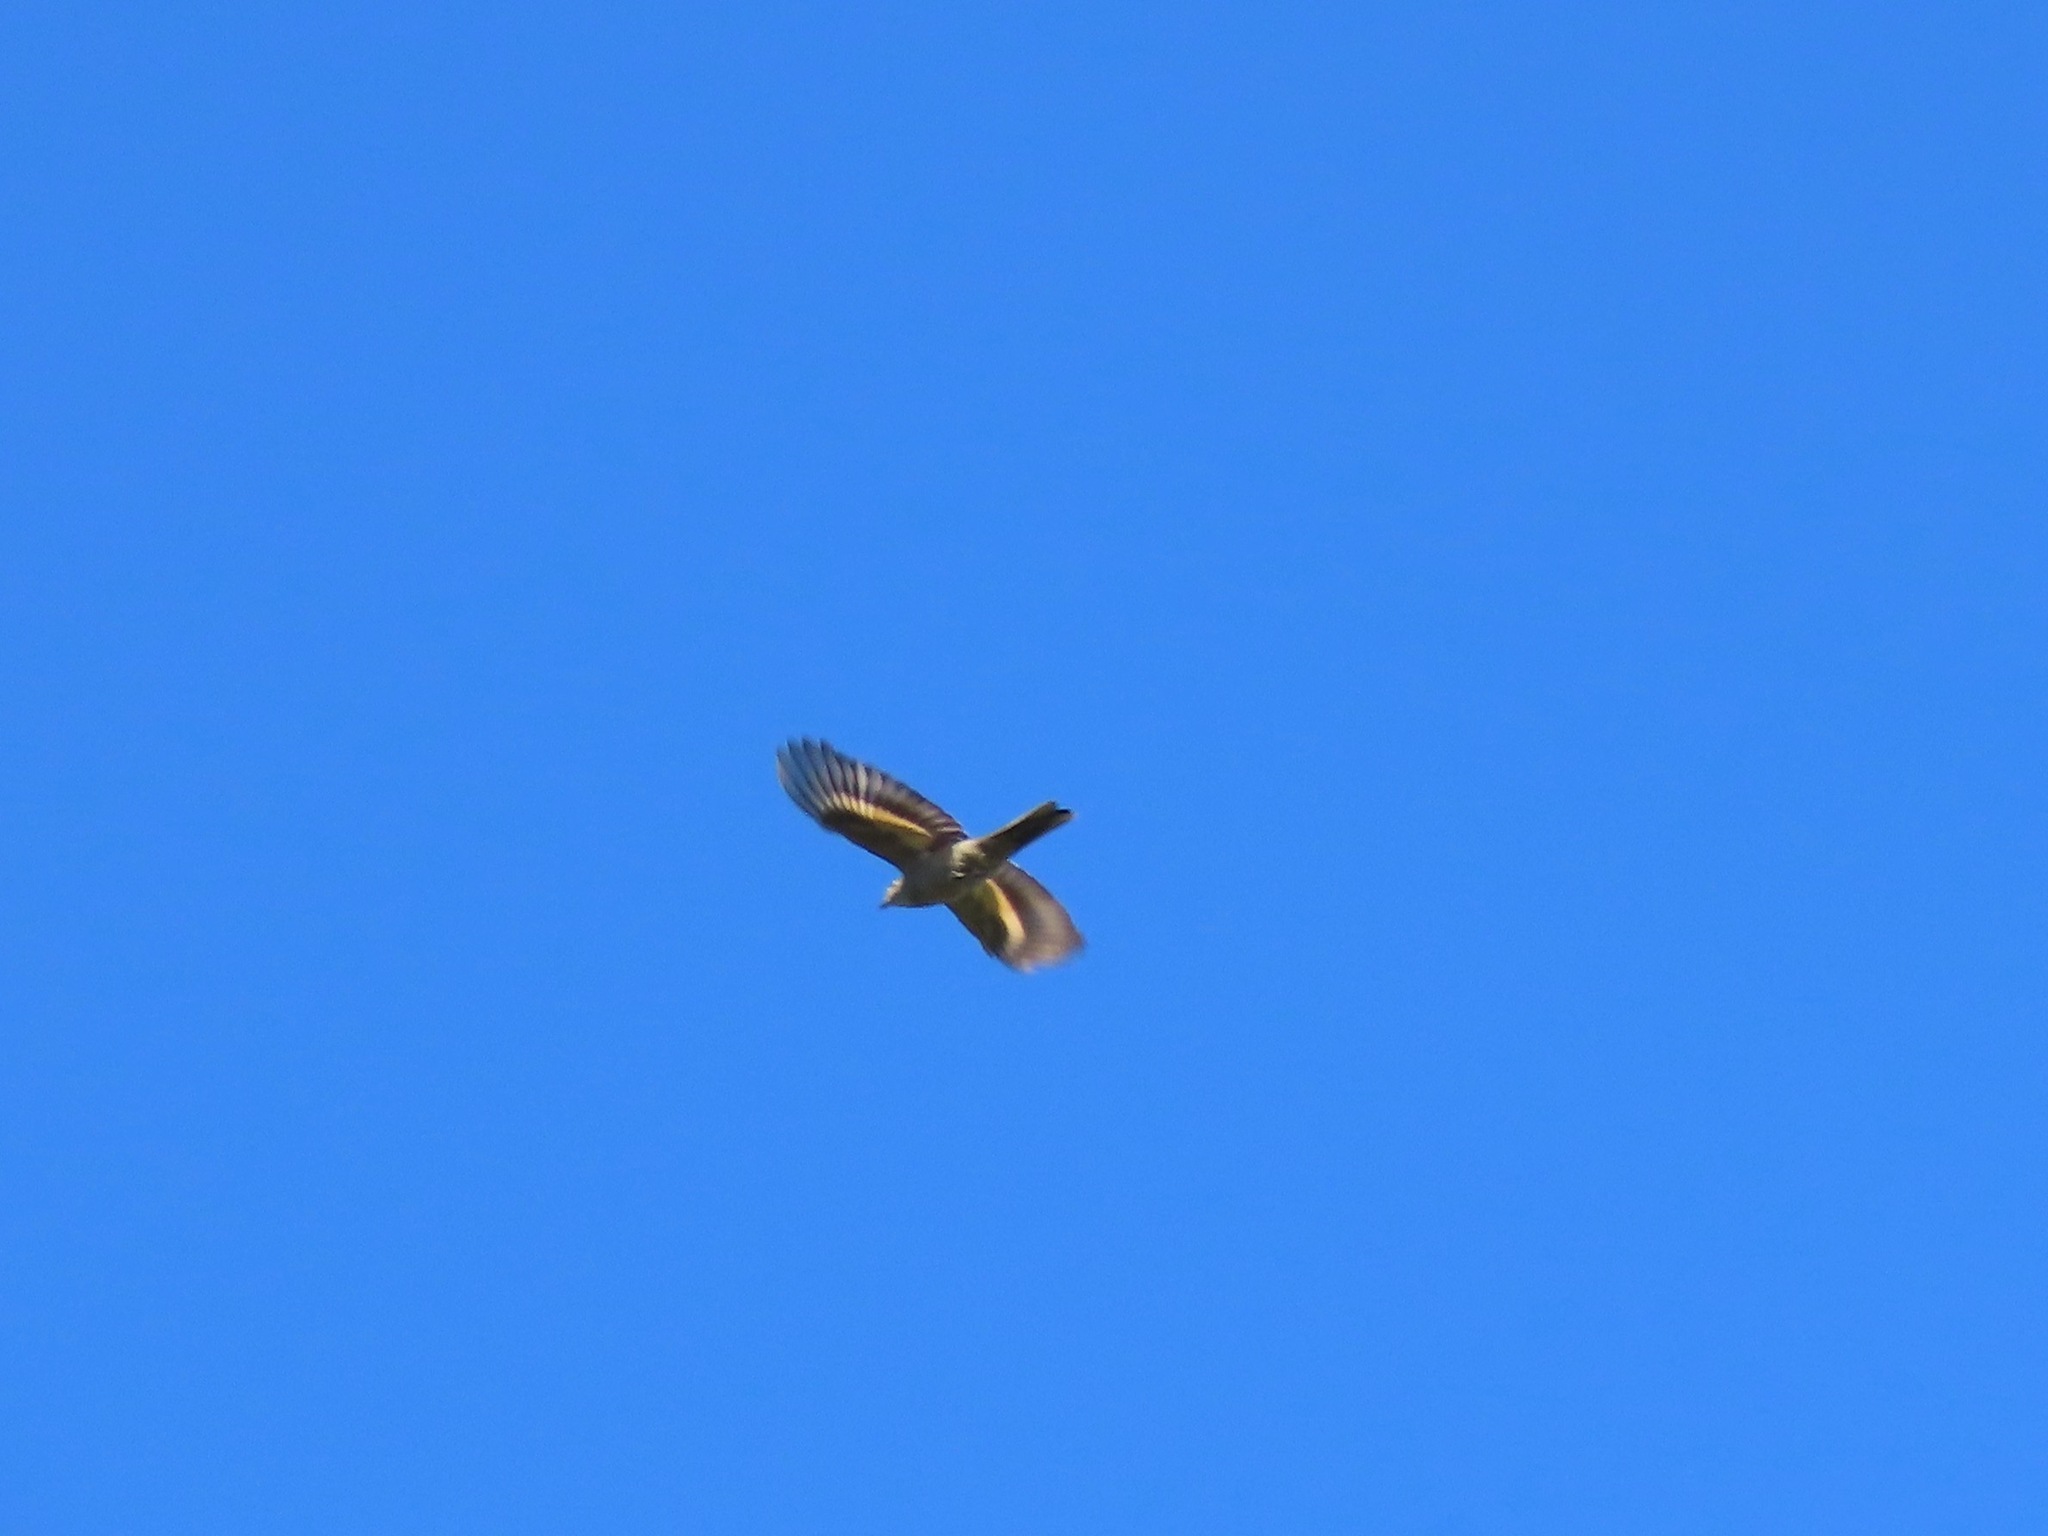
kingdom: Animalia
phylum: Chordata
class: Aves
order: Passeriformes
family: Turdidae
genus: Myadestes
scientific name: Myadestes townsendi
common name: Townsend's solitaire
